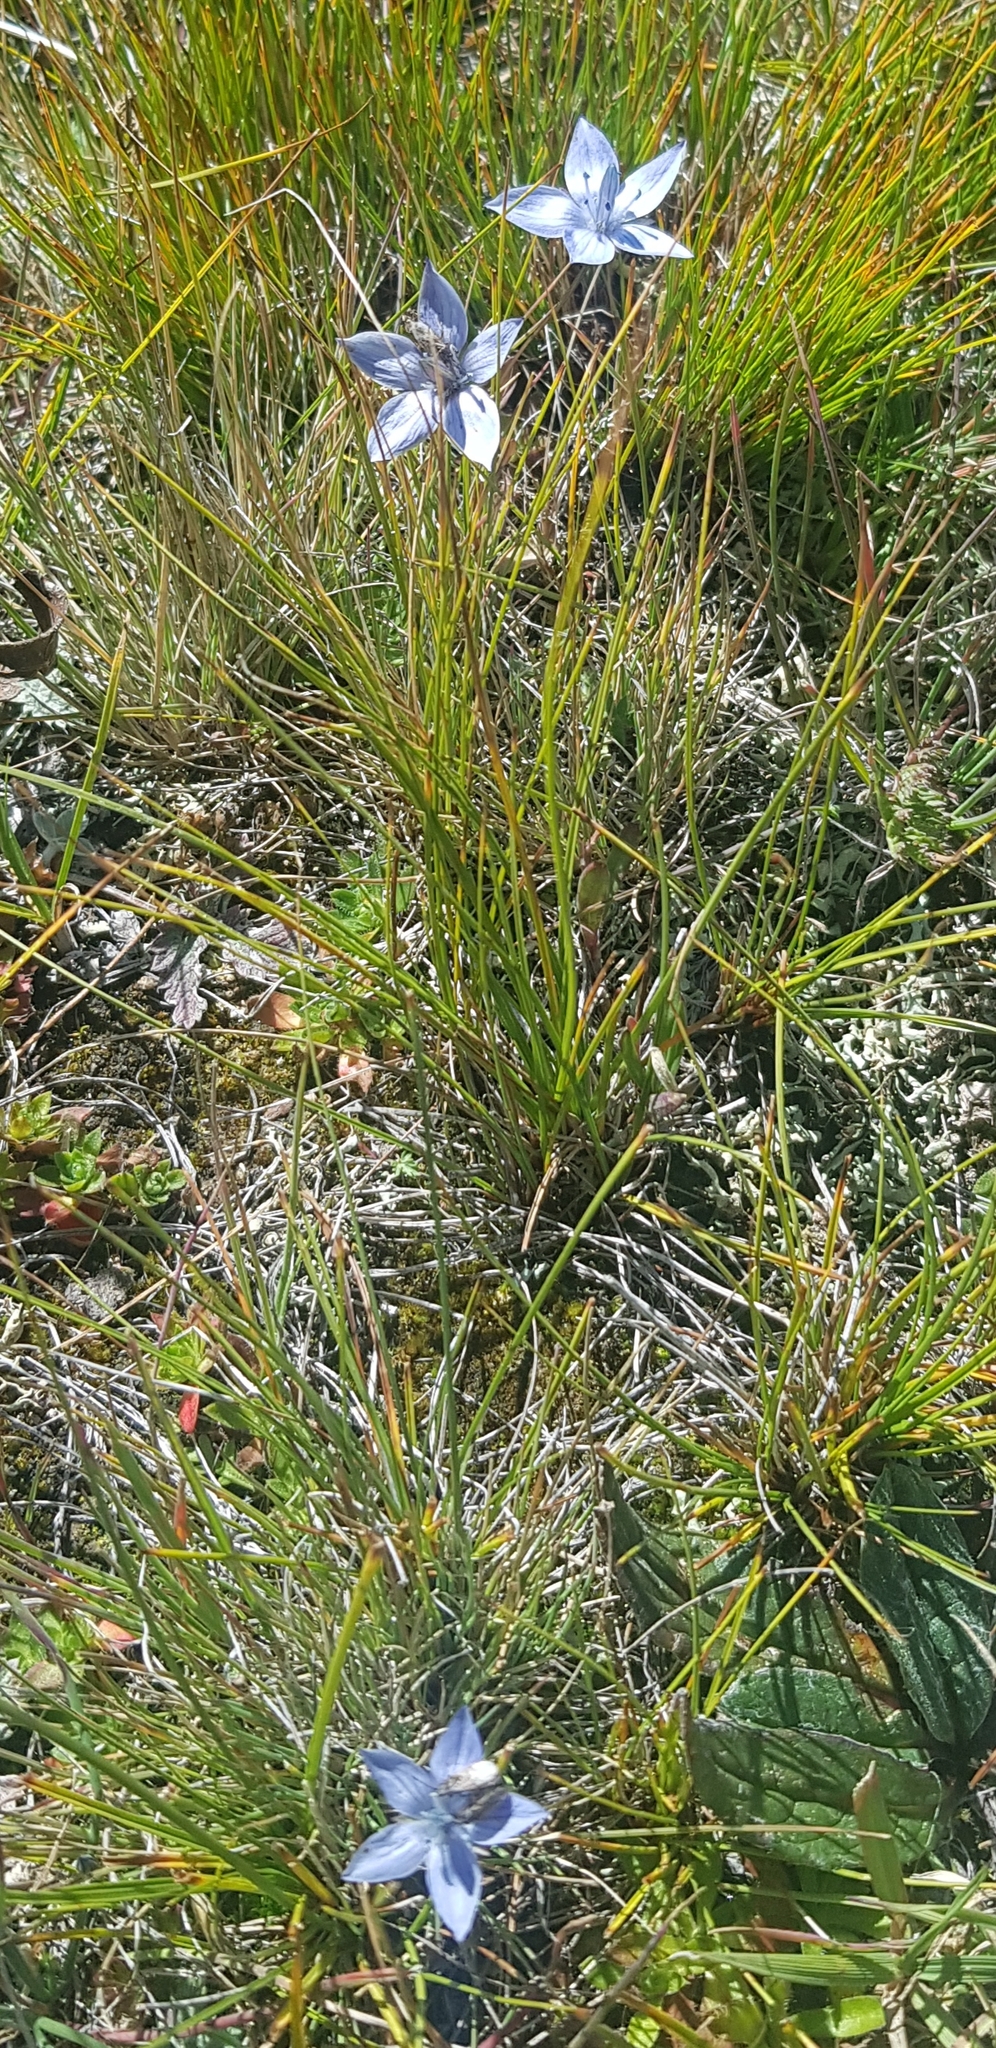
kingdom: Plantae
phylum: Tracheophyta
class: Magnoliopsida
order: Gentianales
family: Gentianaceae
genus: Lomatogonium
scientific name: Lomatogonium carinthiacum
